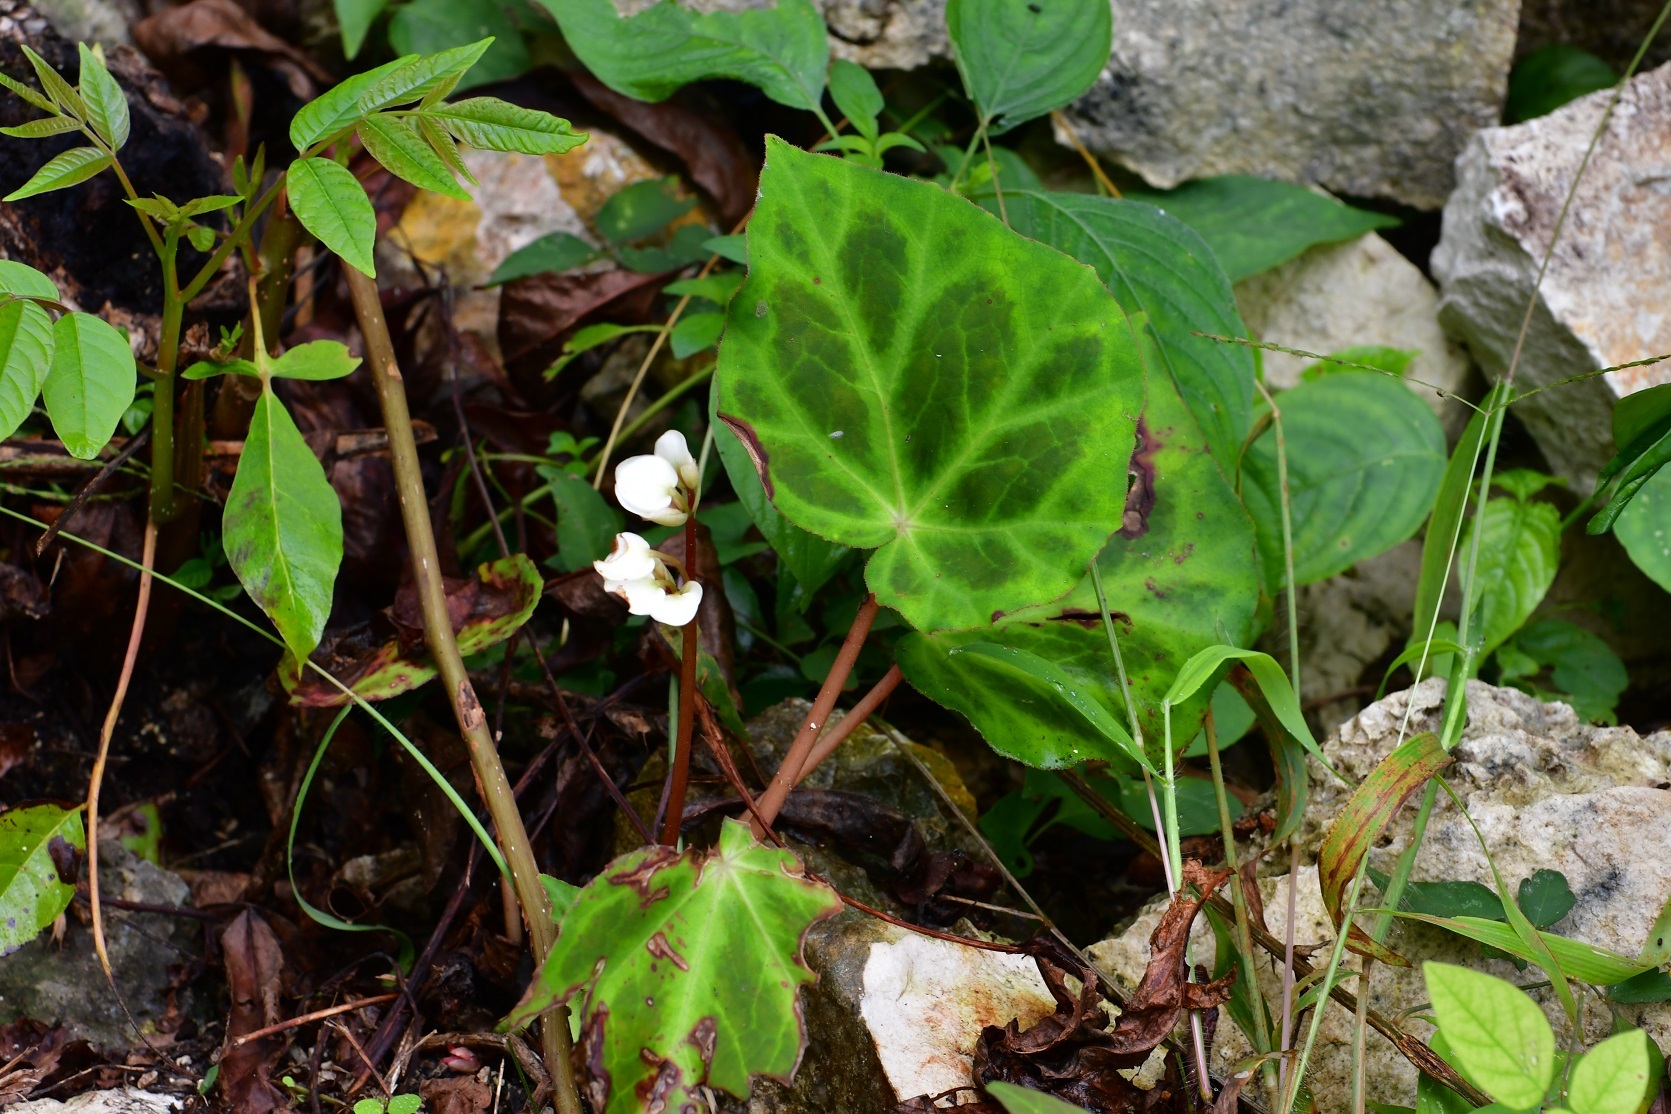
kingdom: Plantae
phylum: Tracheophyta
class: Magnoliopsida
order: Cucurbitales
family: Begoniaceae
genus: Begonia
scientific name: Begonia plebeja
